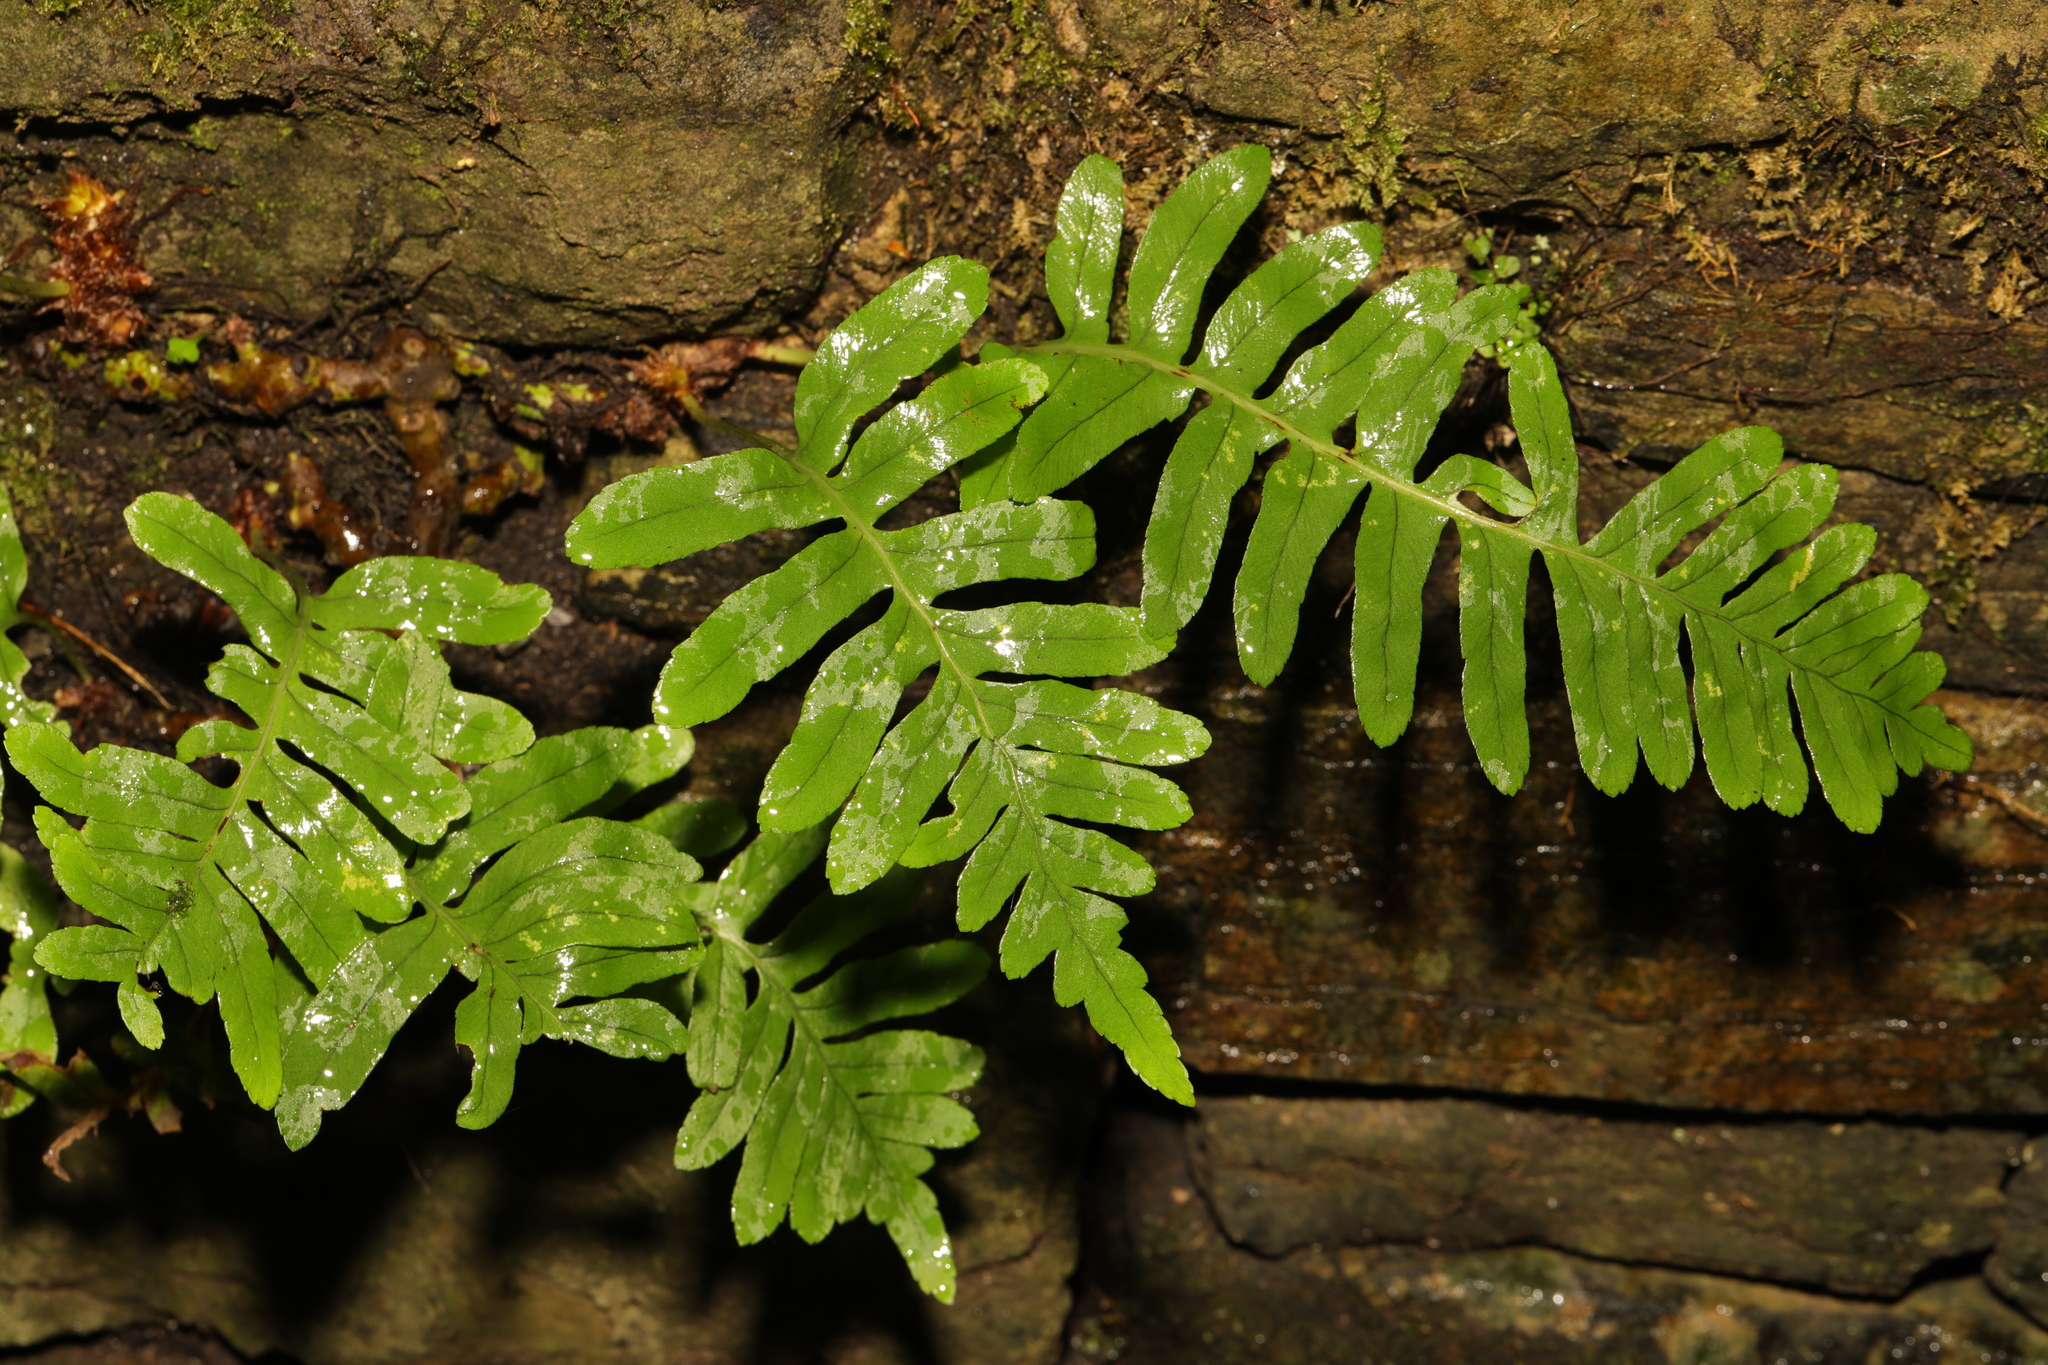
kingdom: Plantae
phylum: Tracheophyta
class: Polypodiopsida
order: Polypodiales
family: Polypodiaceae
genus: Polypodium
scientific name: Polypodium
